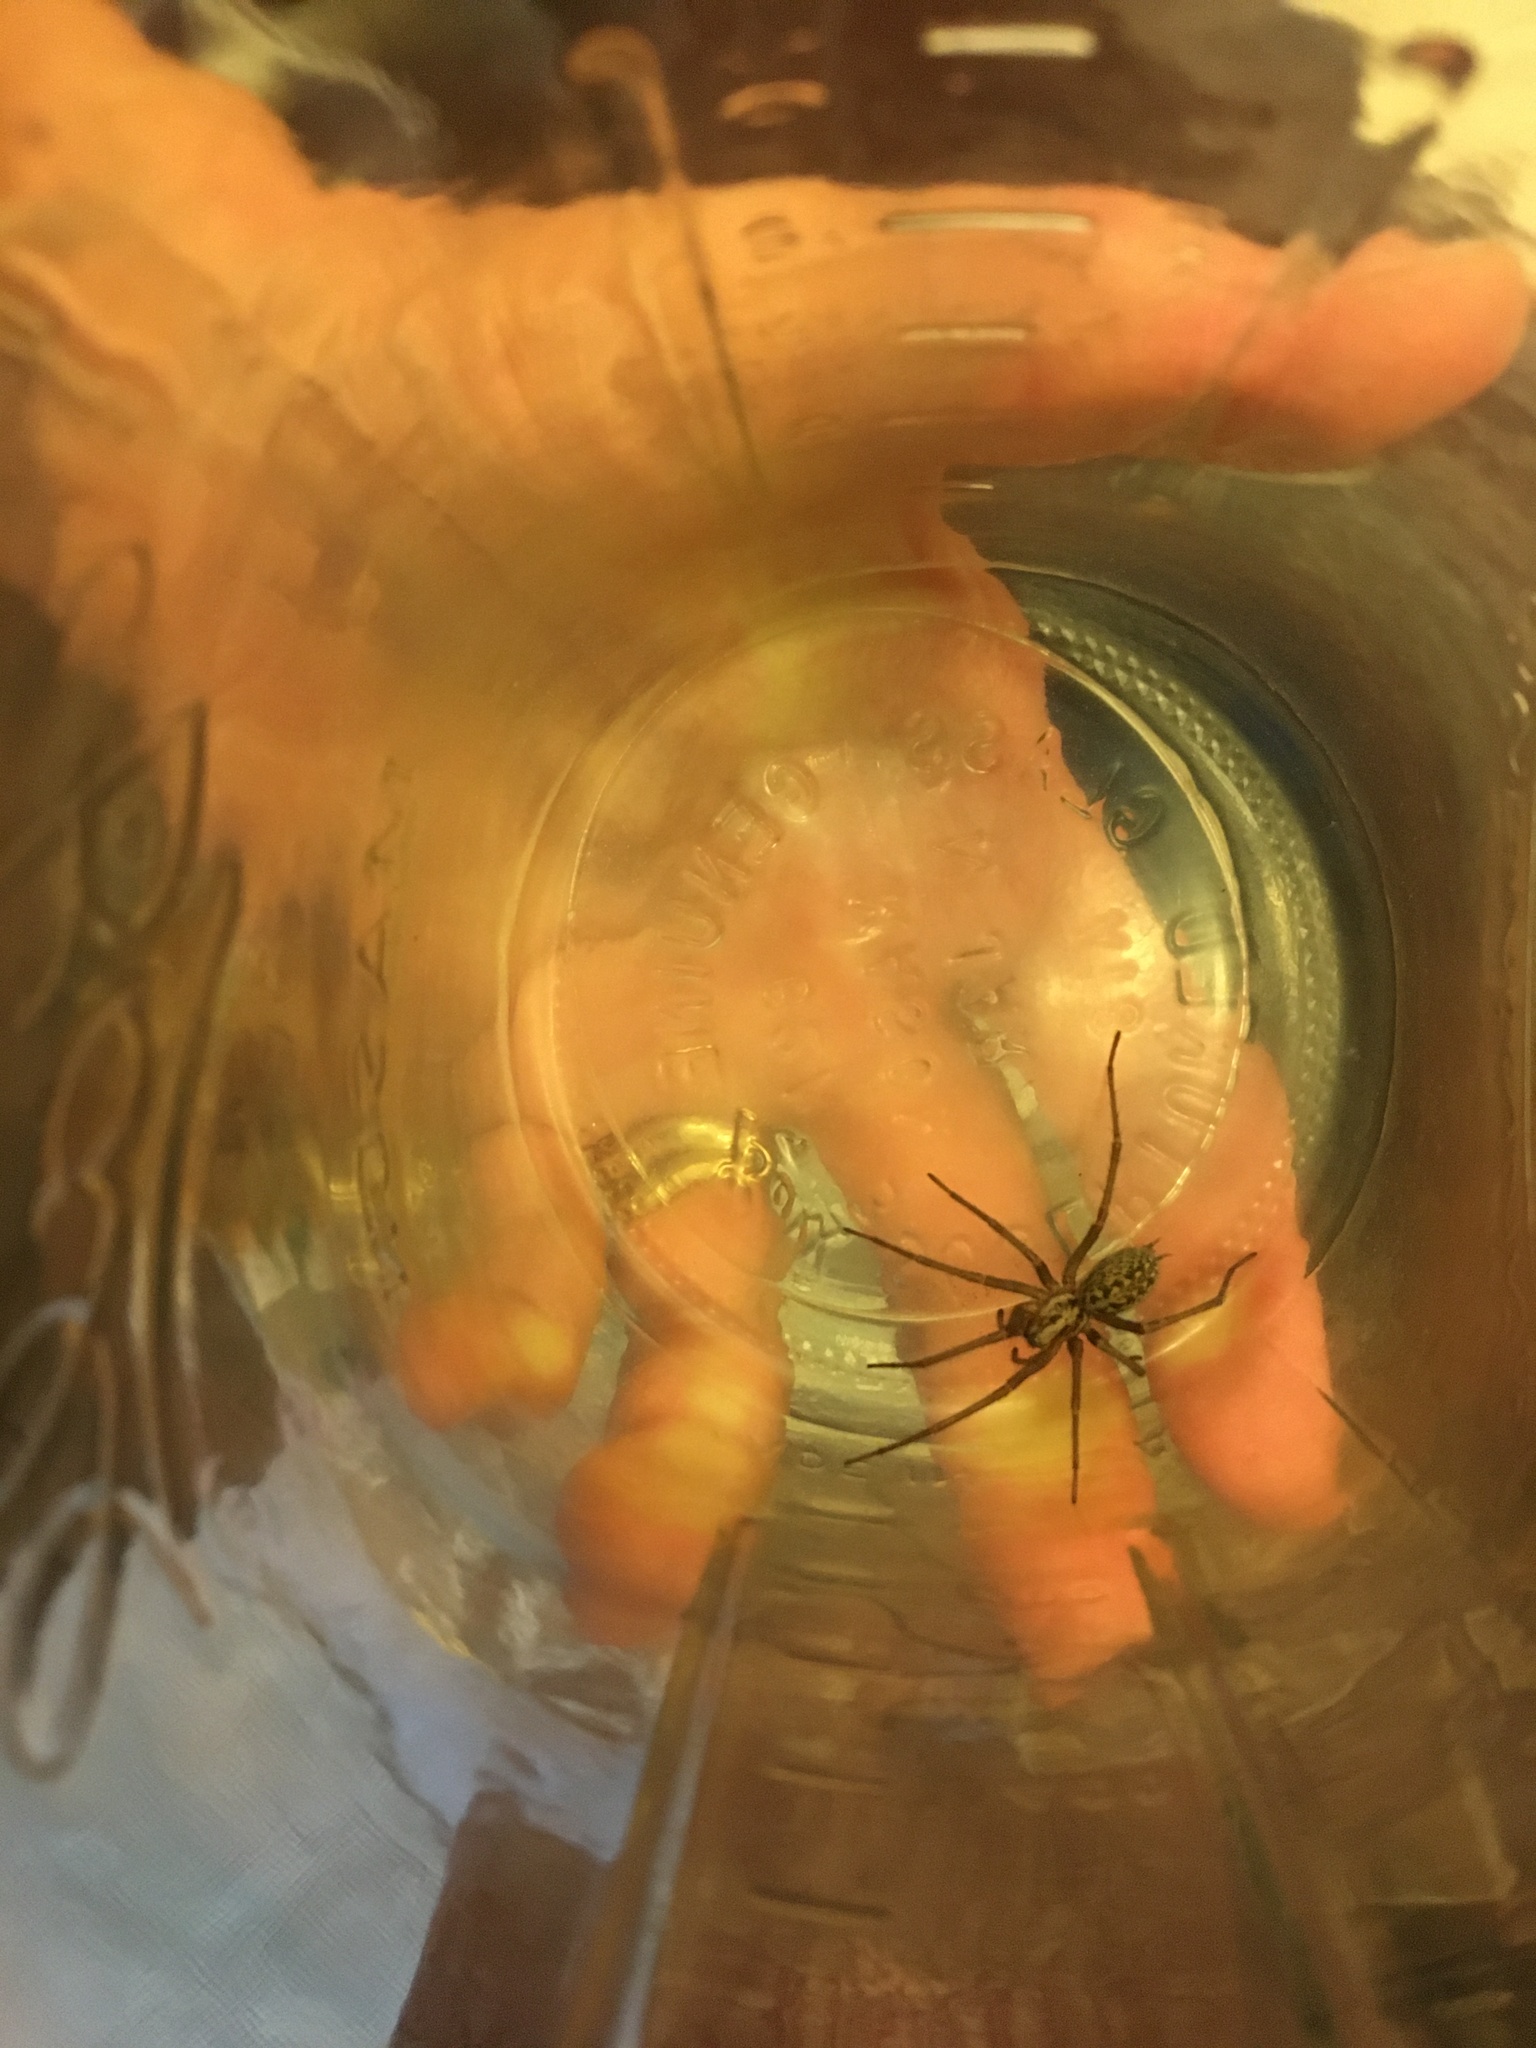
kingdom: Animalia
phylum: Arthropoda
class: Arachnida
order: Araneae
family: Agelenidae
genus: Eratigena
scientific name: Eratigena duellica
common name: Giant house spider
